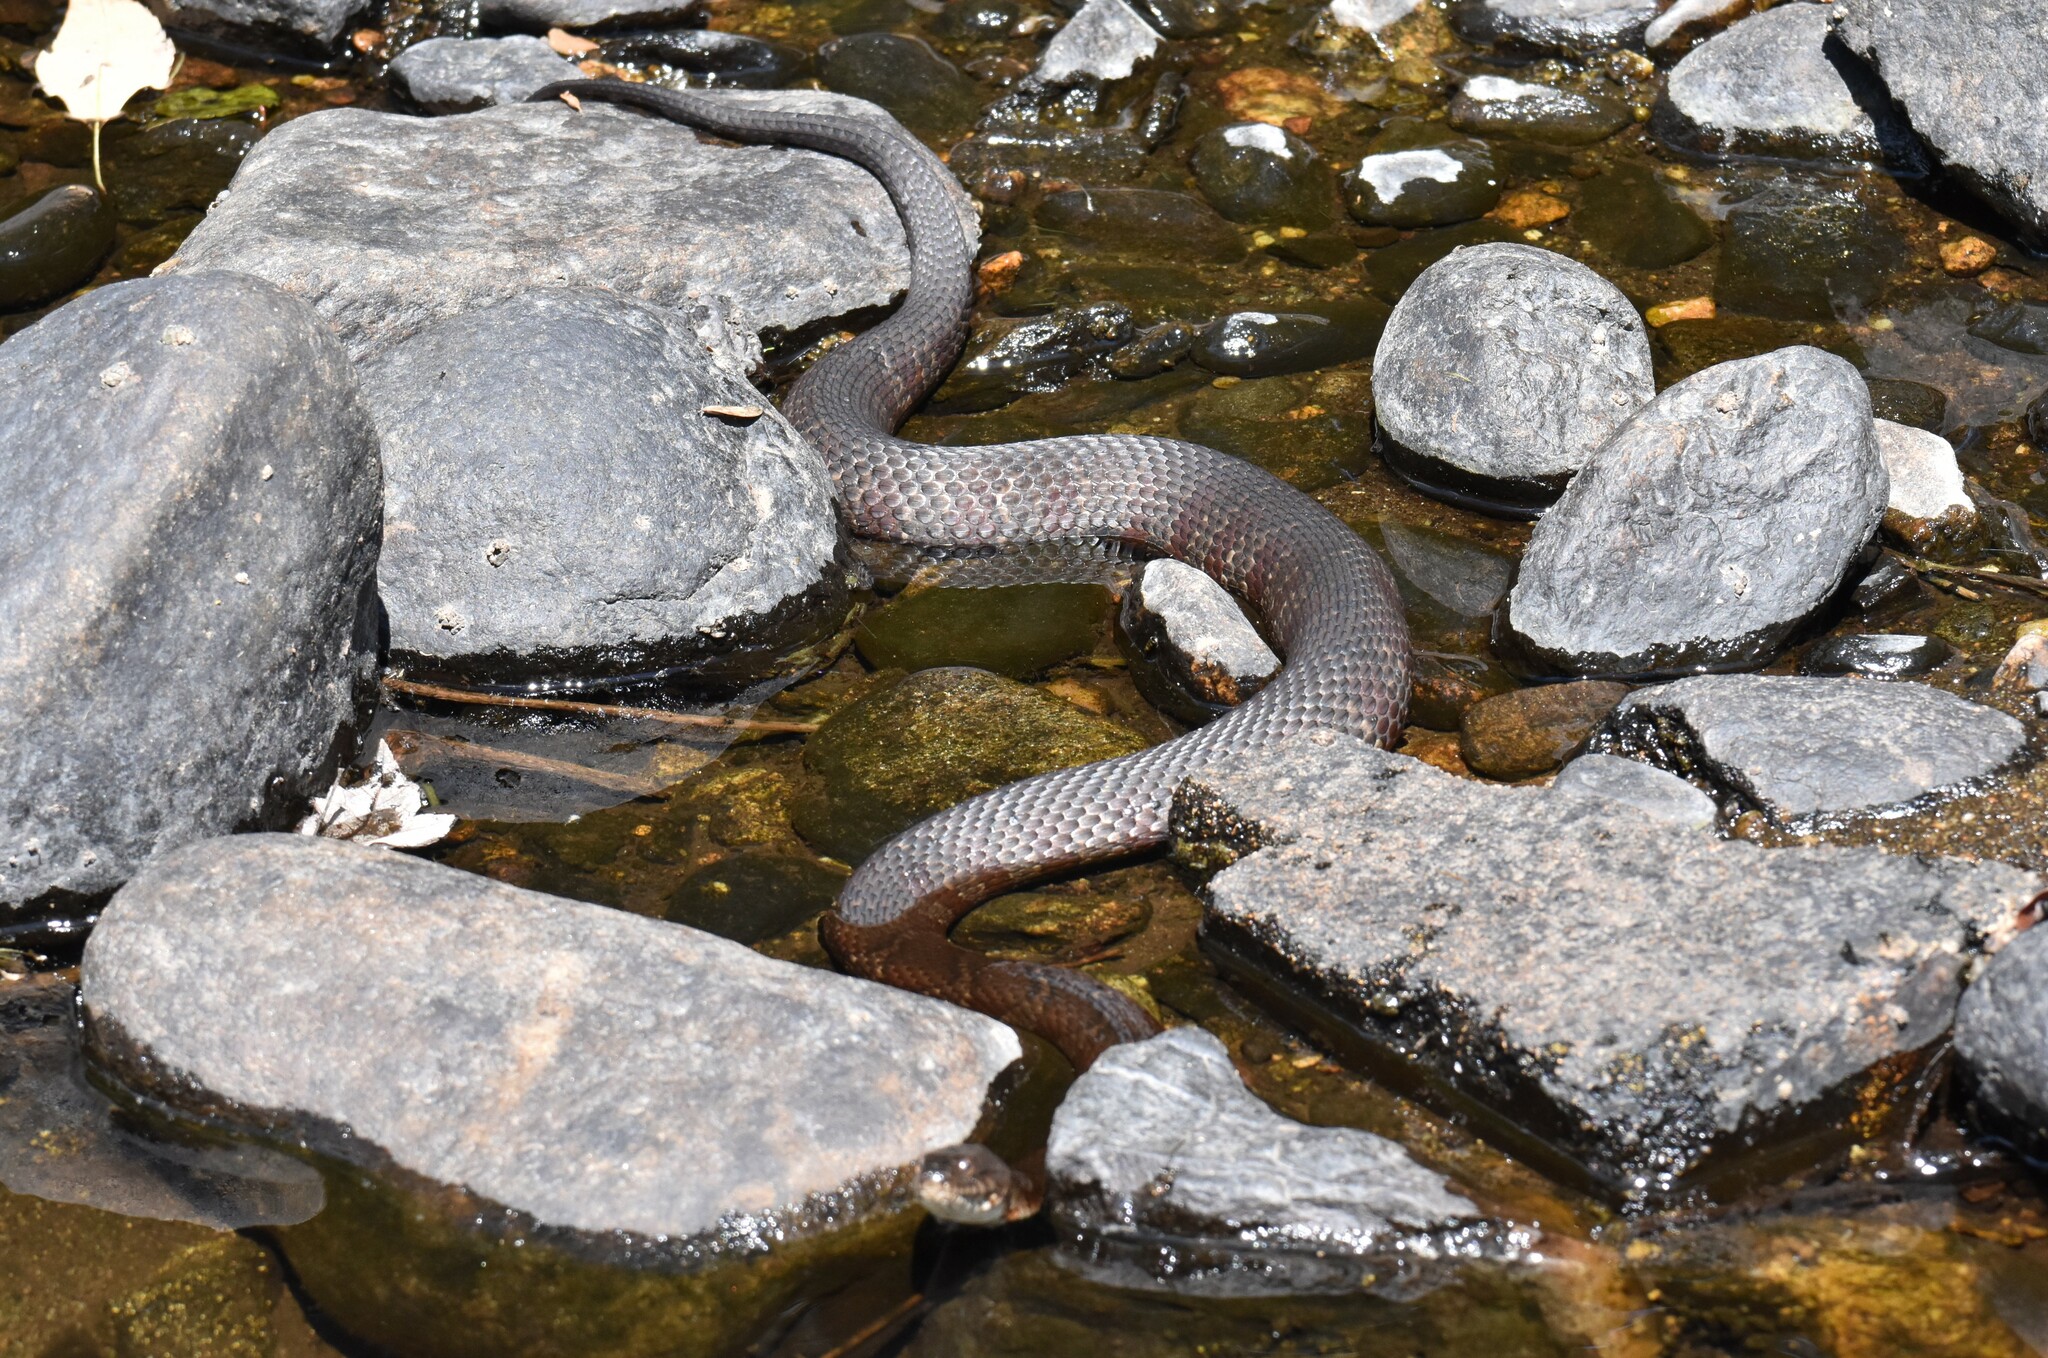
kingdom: Animalia
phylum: Chordata
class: Squamata
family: Colubridae
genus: Nerodia
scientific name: Nerodia sipedon
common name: Northern water snake
